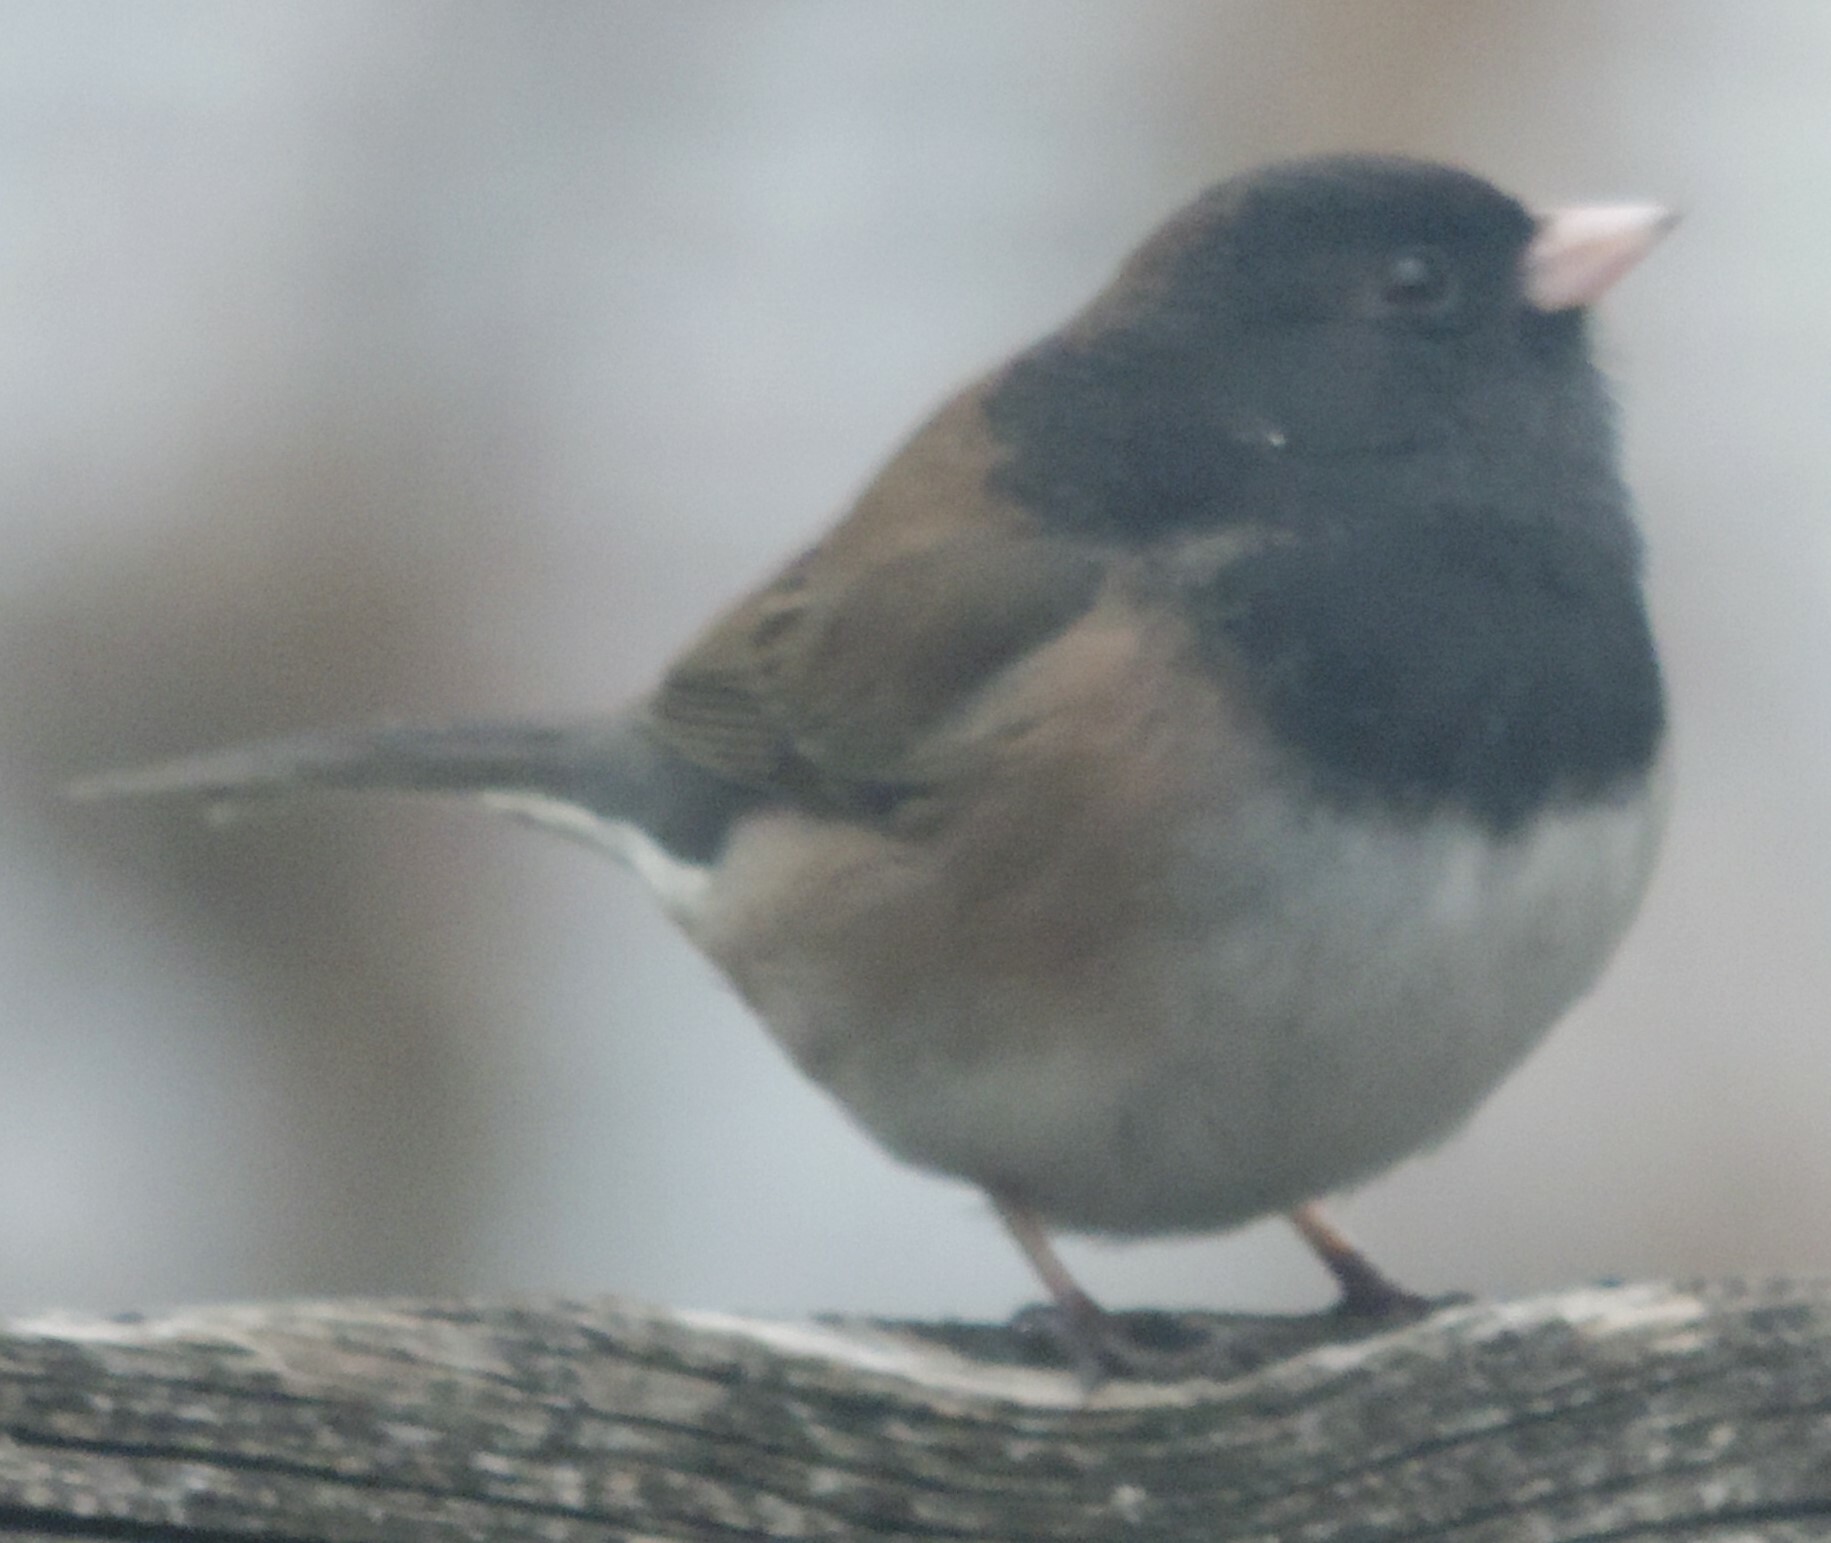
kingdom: Animalia
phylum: Chordata
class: Aves
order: Passeriformes
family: Passerellidae
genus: Junco
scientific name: Junco hyemalis
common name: Dark-eyed junco
